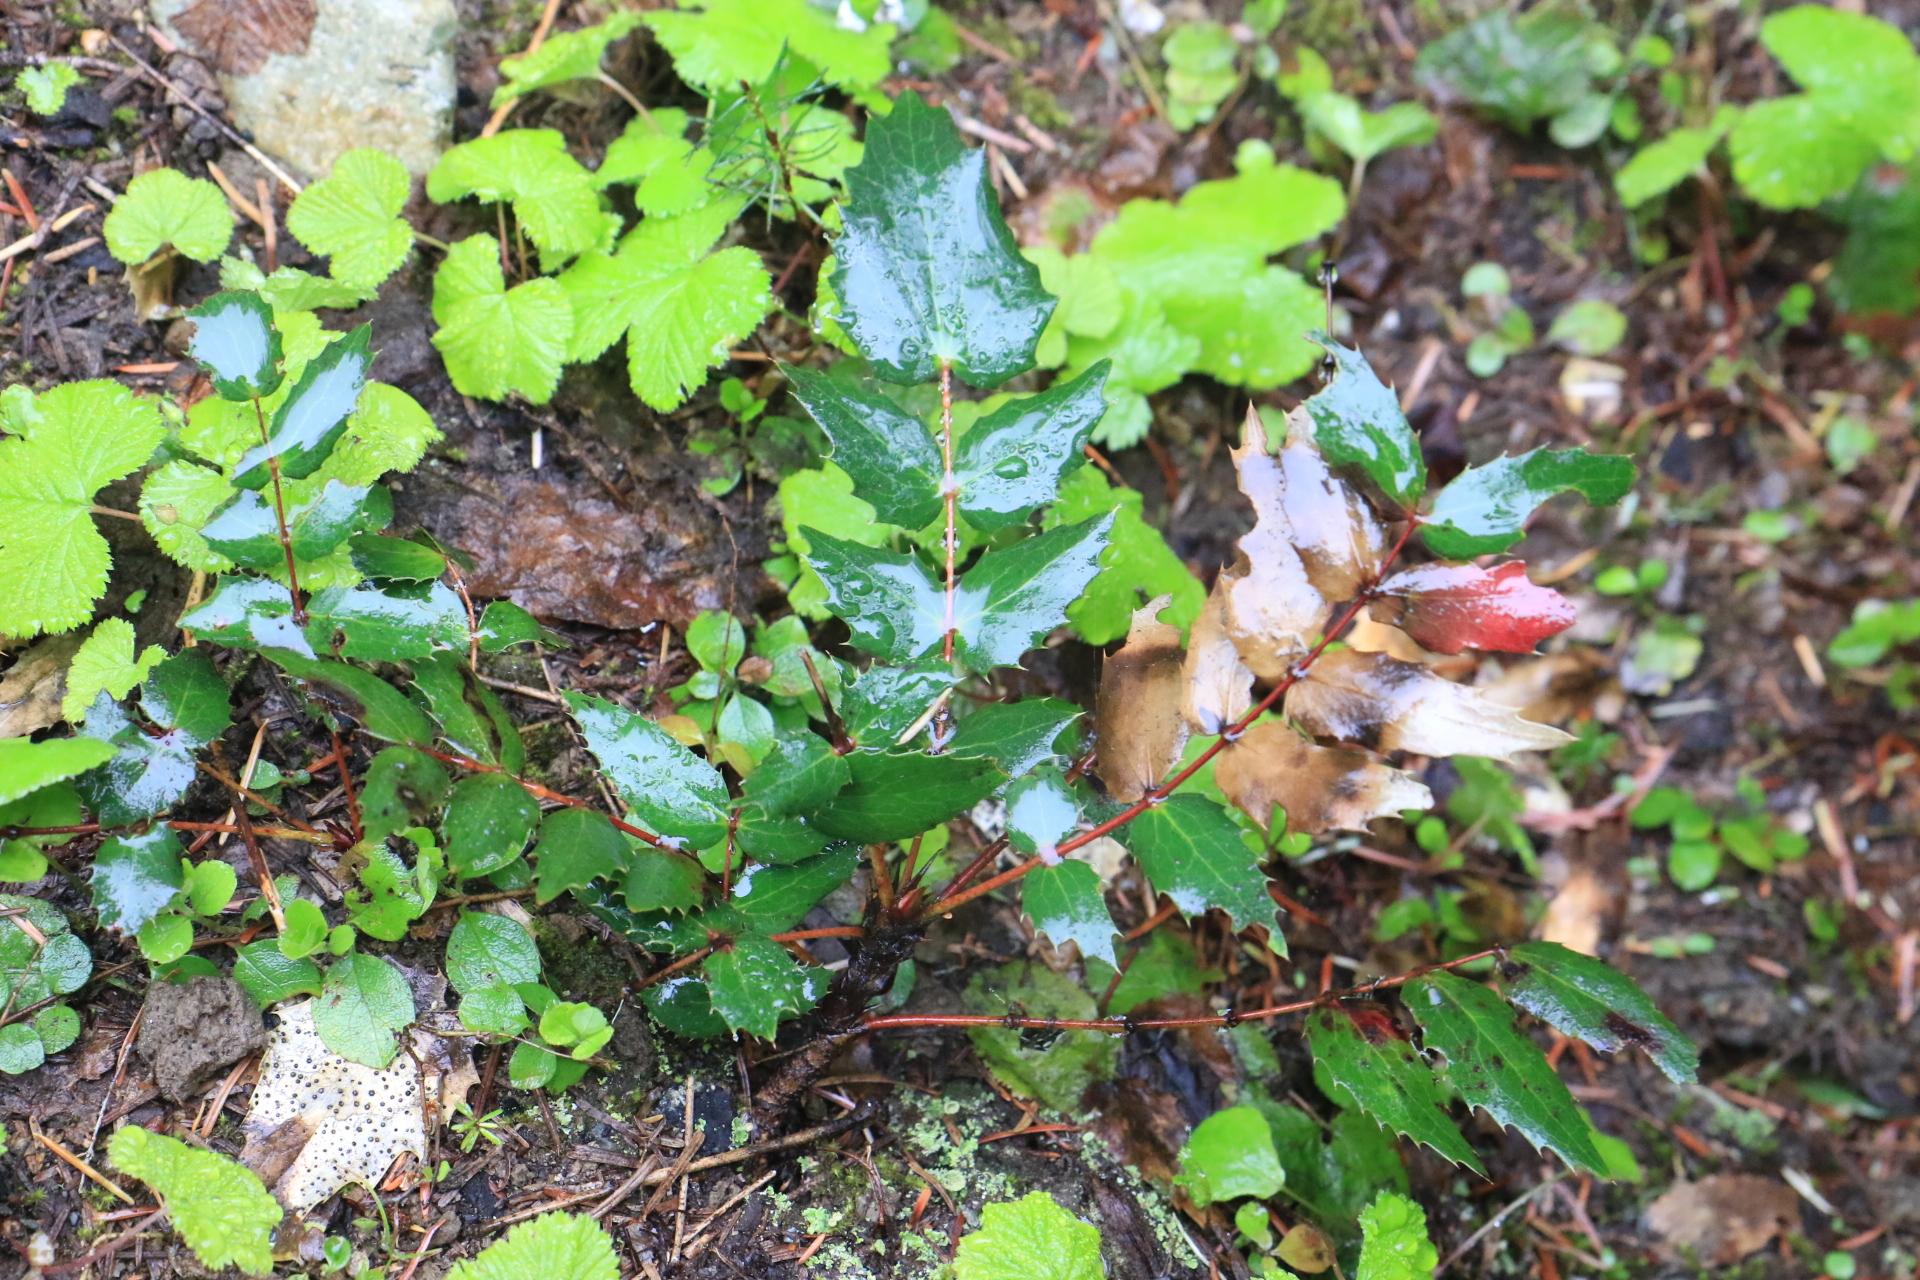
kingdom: Plantae
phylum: Tracheophyta
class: Magnoliopsida
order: Ranunculales
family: Berberidaceae
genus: Mahonia
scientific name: Mahonia nervosa
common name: Cascade oregon-grape
